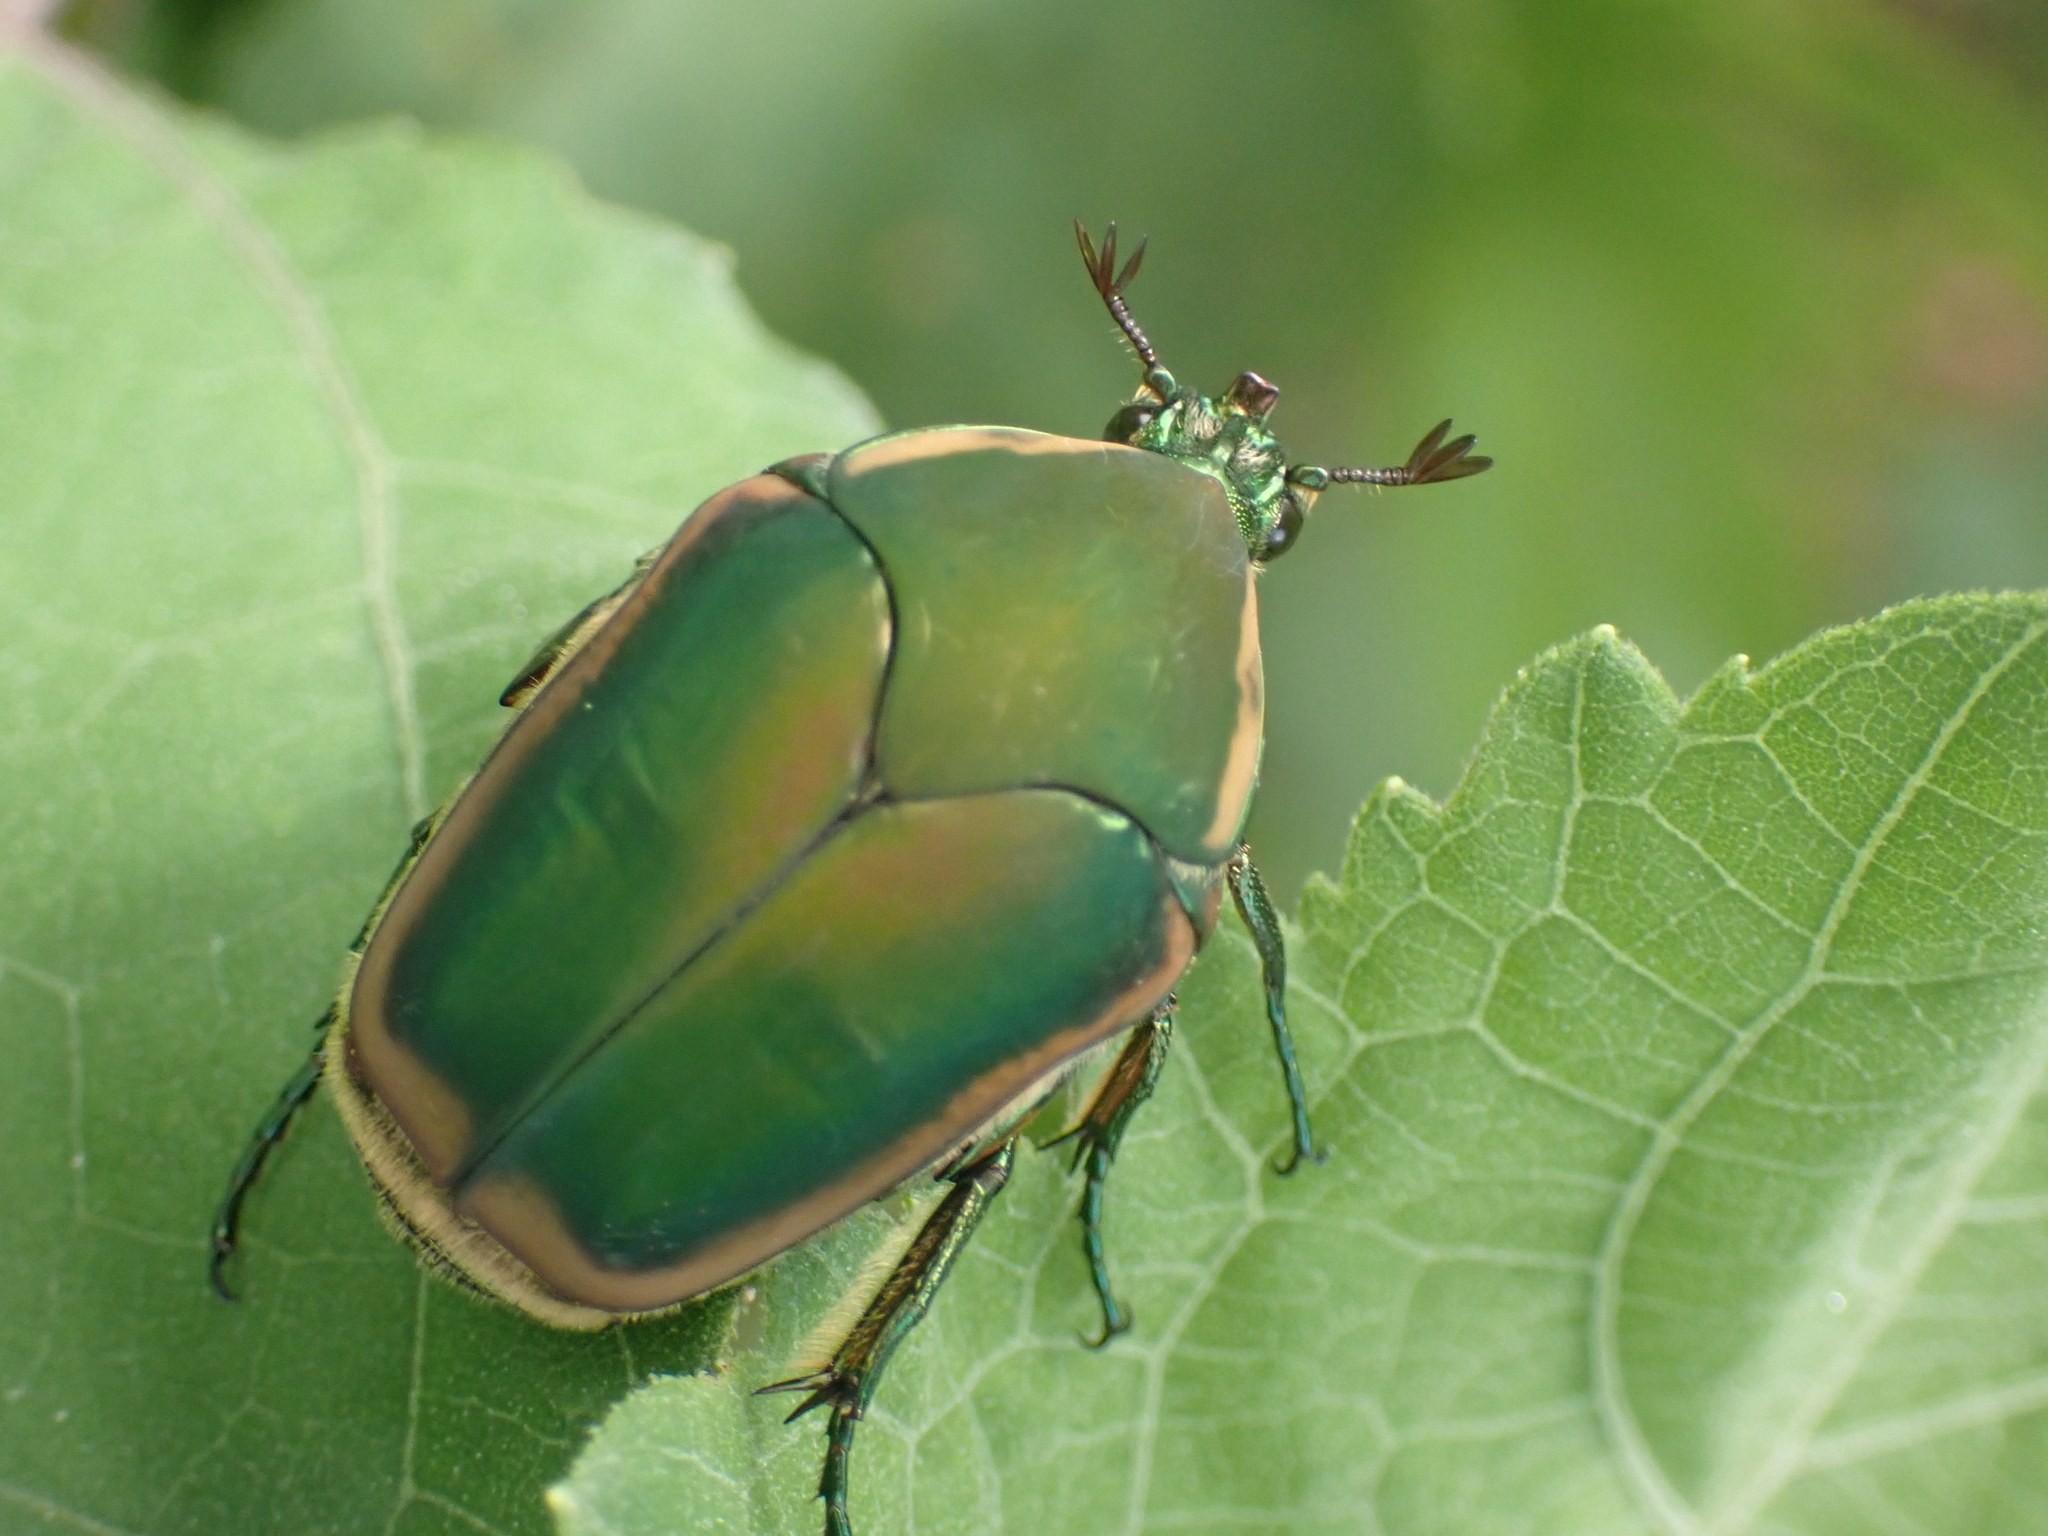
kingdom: Animalia
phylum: Arthropoda
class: Insecta
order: Coleoptera
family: Scarabaeidae
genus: Cotinis
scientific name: Cotinis nitida
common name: Common green june beetle
